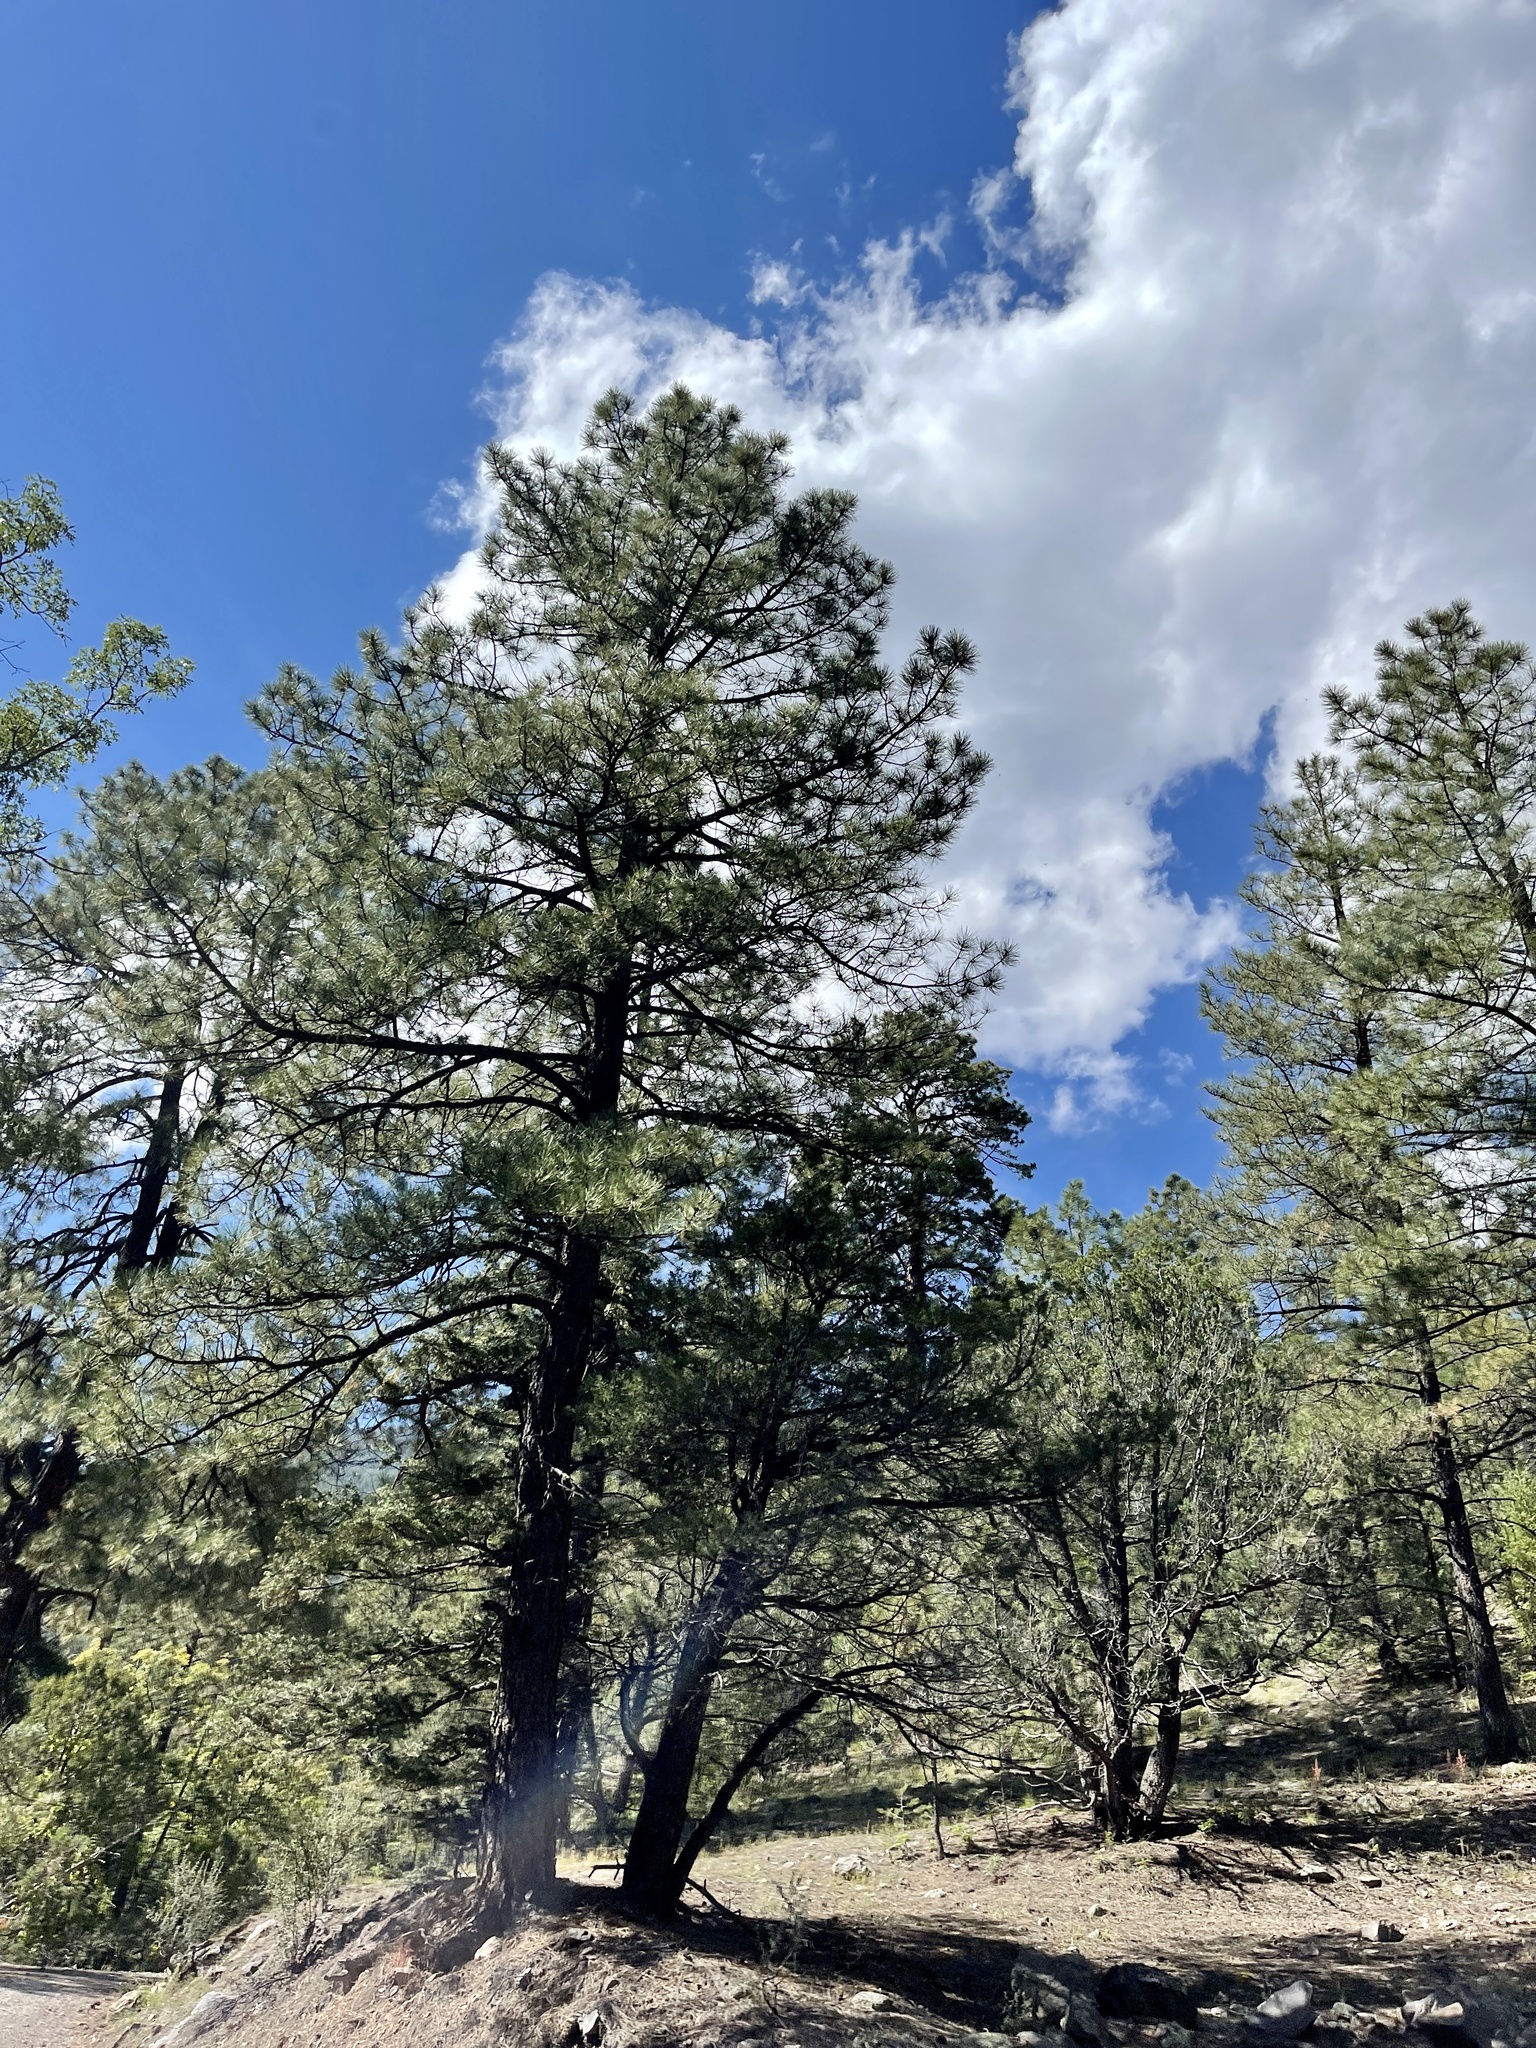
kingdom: Plantae
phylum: Tracheophyta
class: Pinopsida
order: Pinales
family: Pinaceae
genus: Pinus
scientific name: Pinus ponderosa
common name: Western yellow-pine
